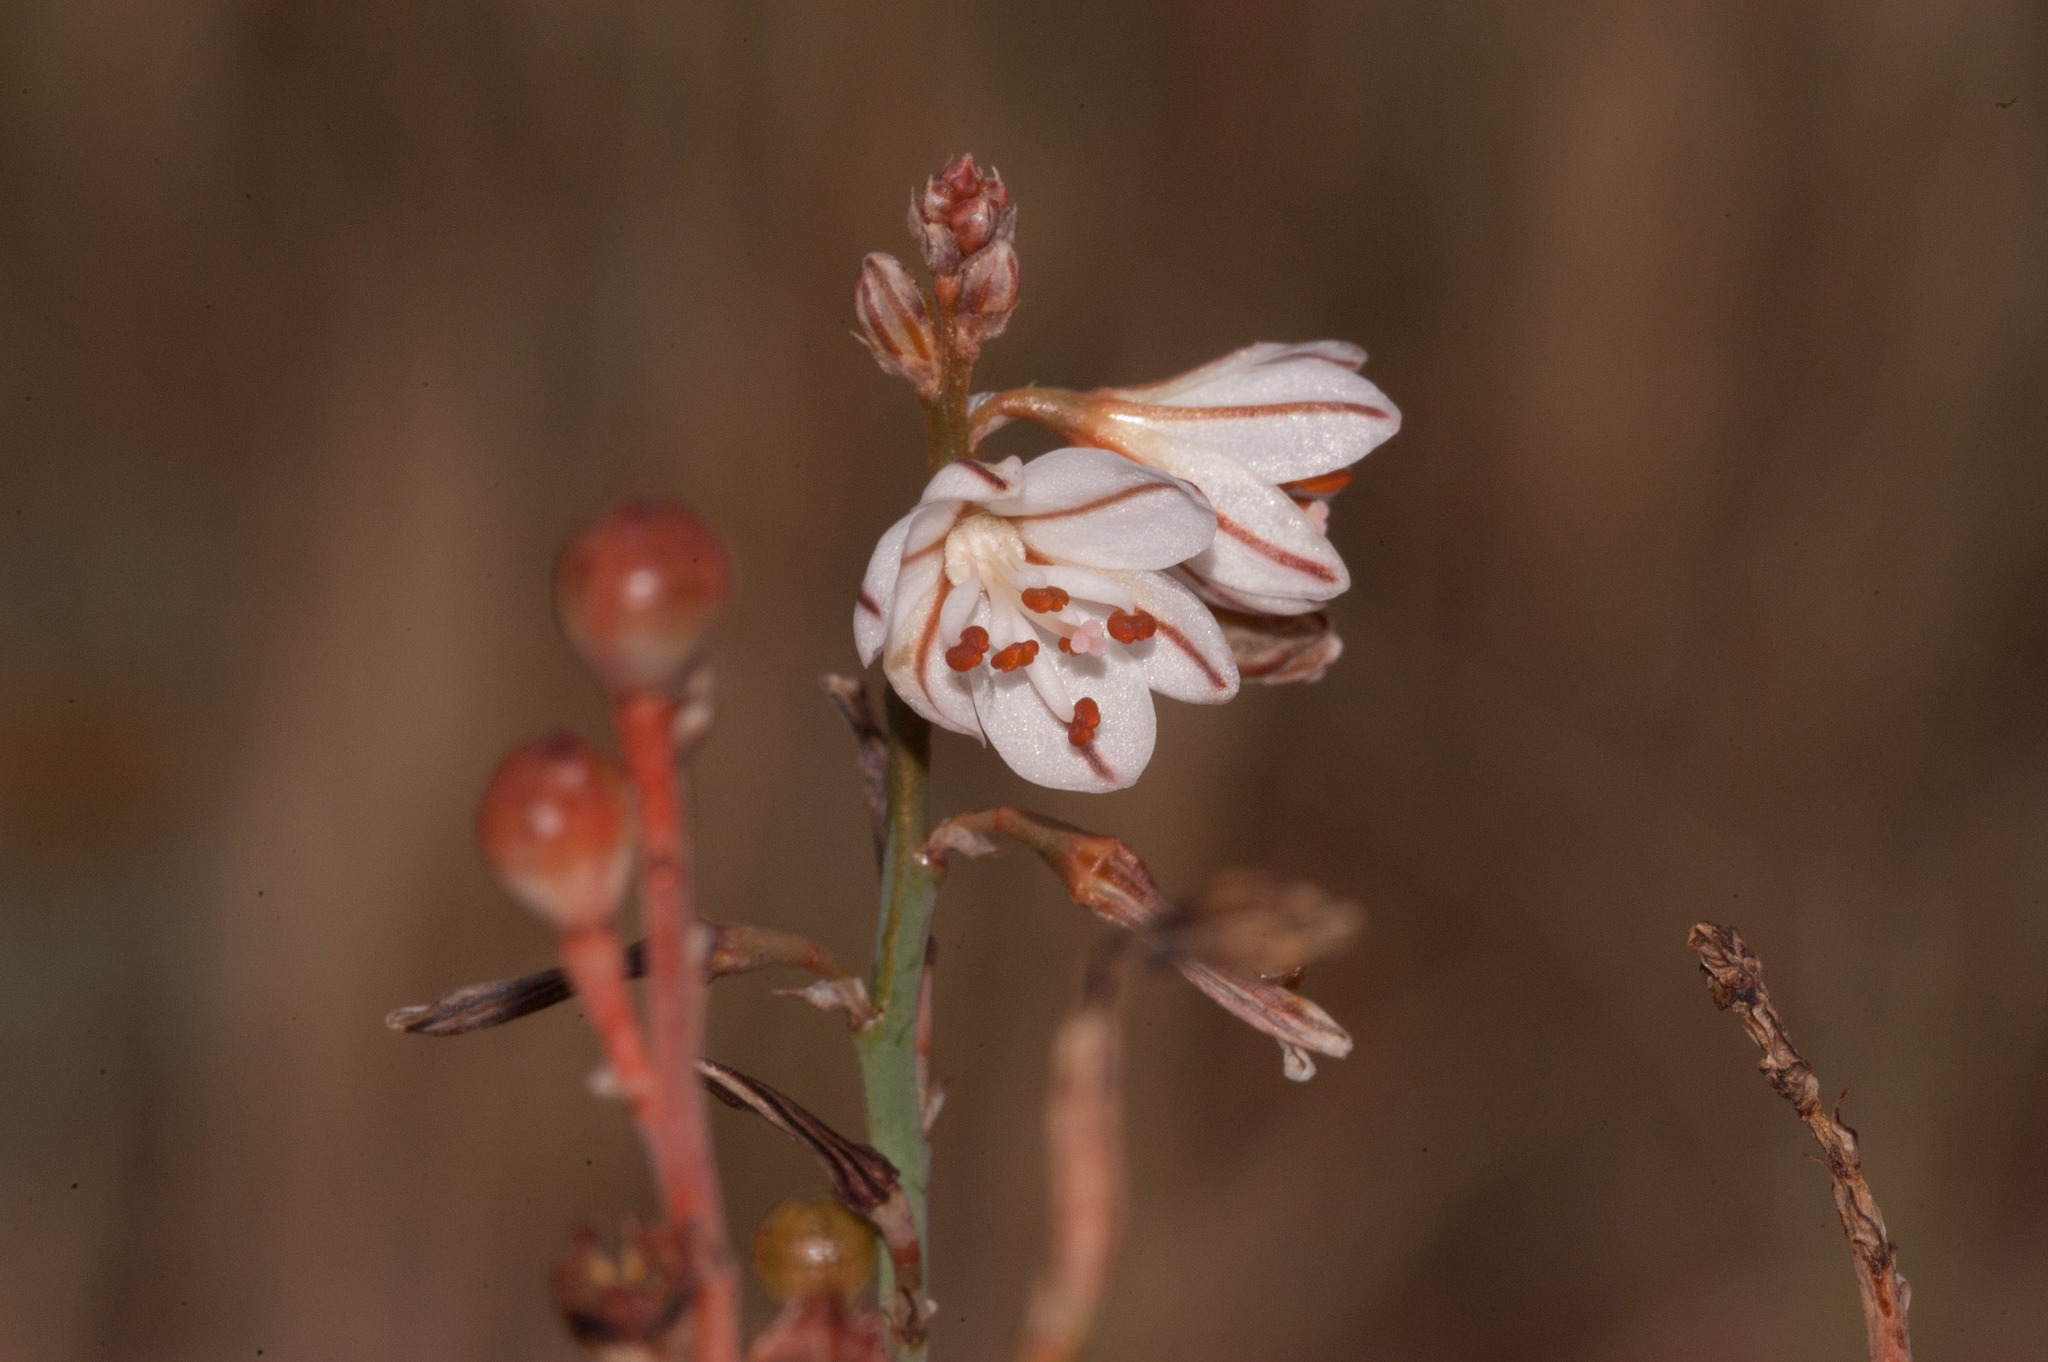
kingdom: Plantae
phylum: Tracheophyta
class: Liliopsida
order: Asparagales
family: Asphodelaceae
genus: Asphodelus
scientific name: Asphodelus fistulosus
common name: Onionweed
